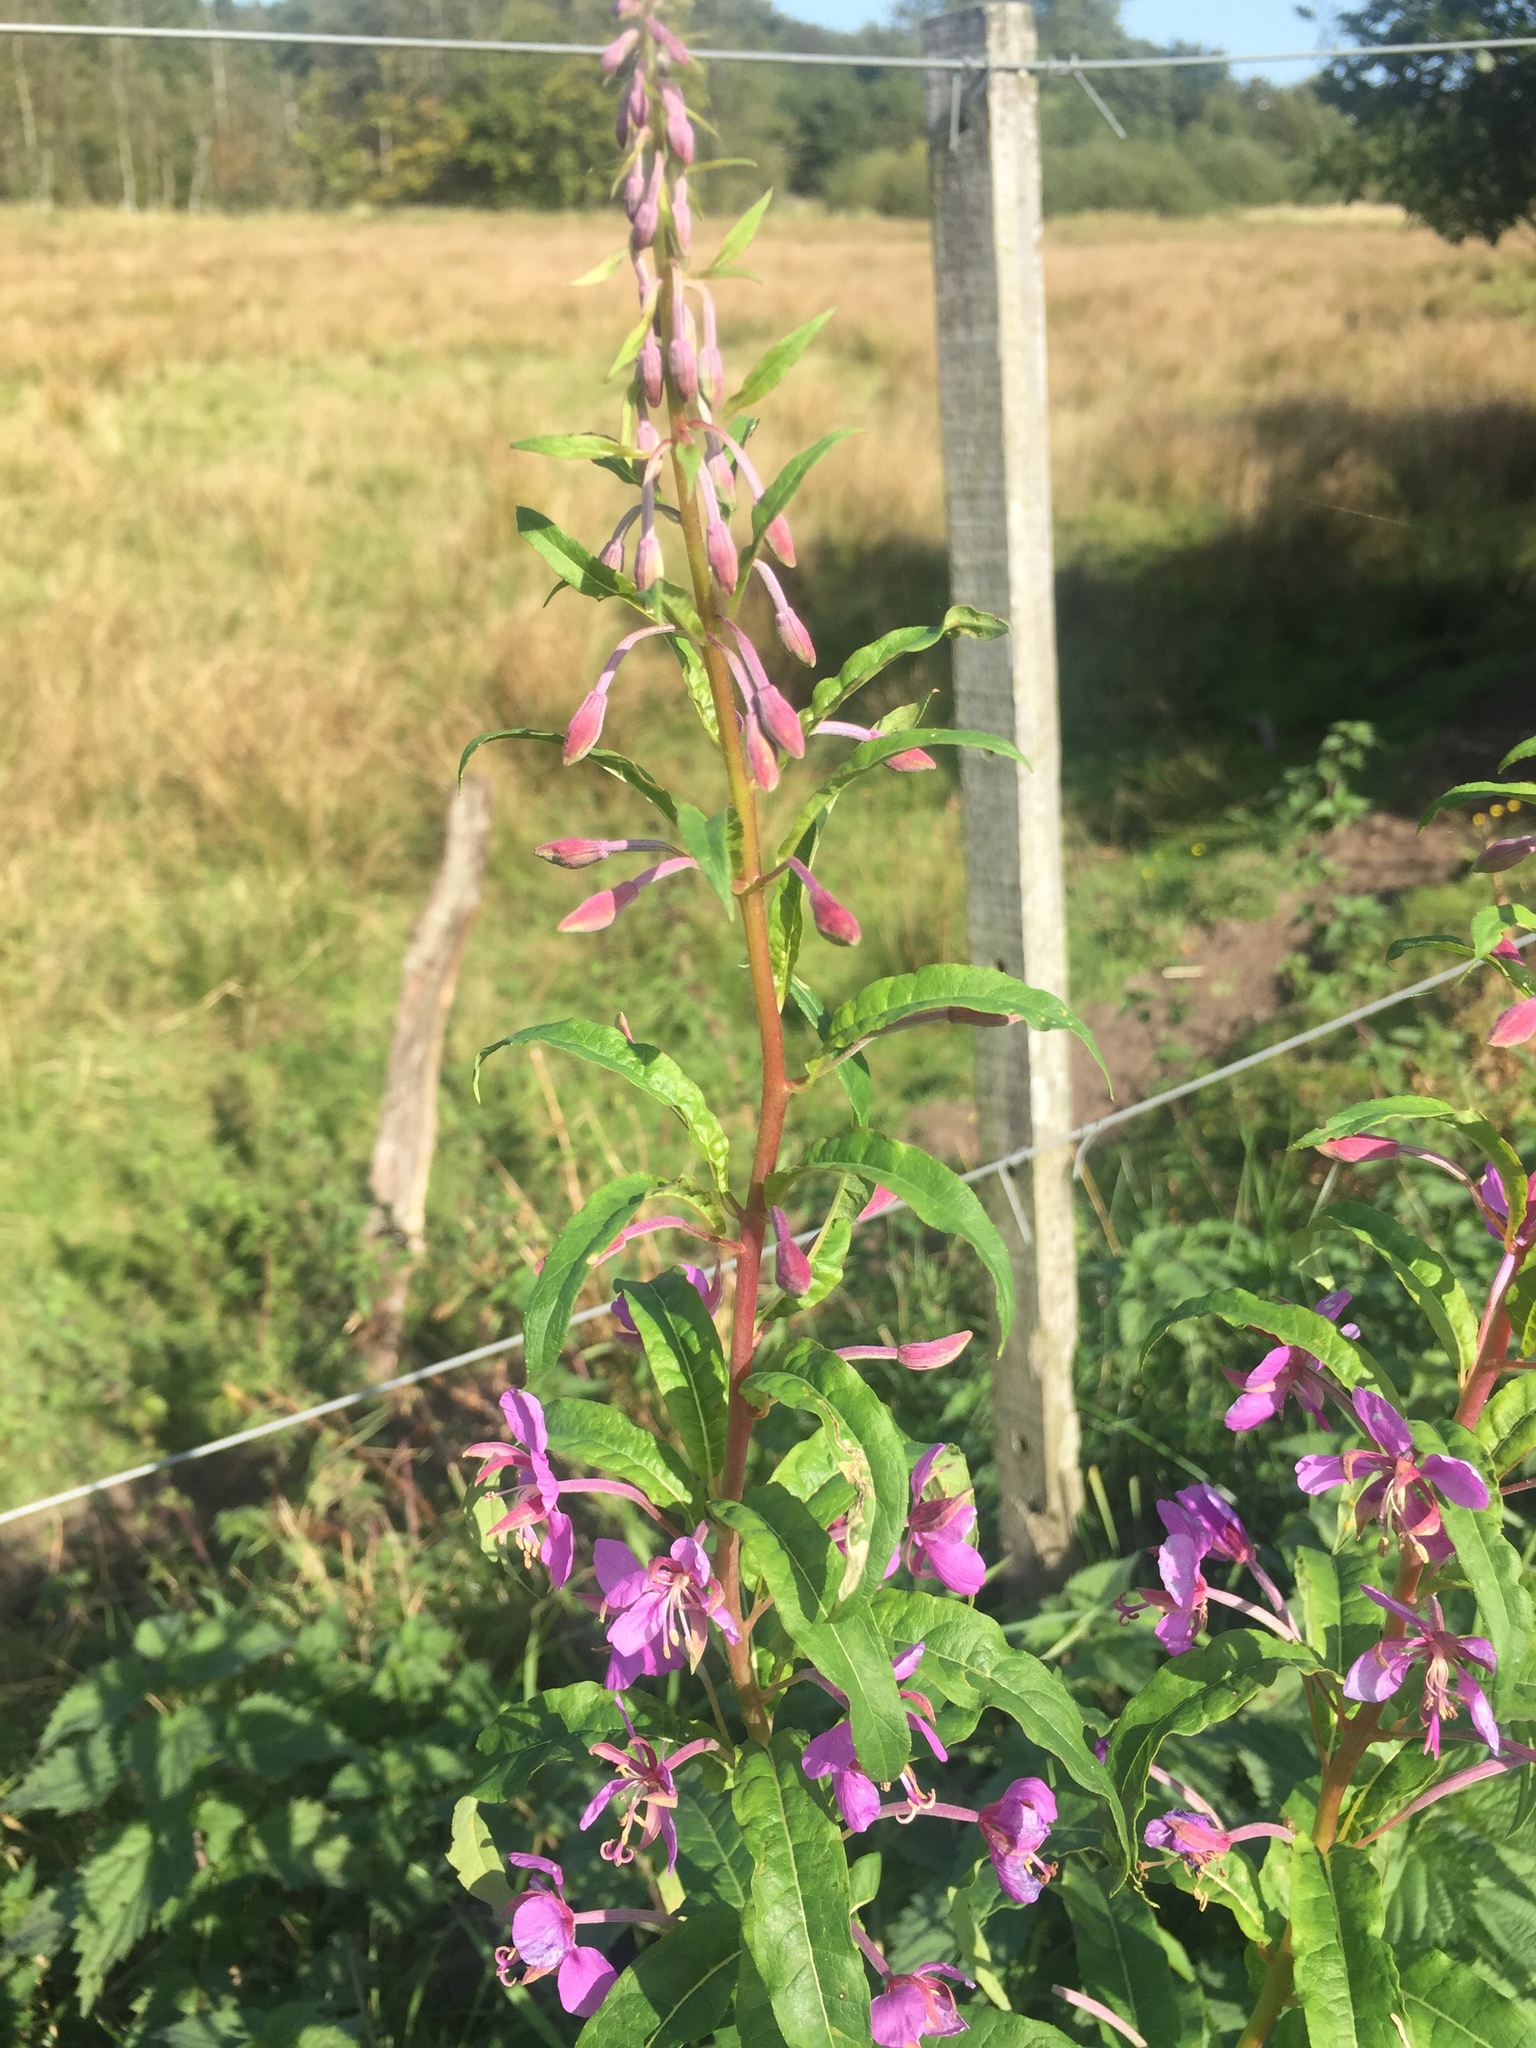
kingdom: Plantae
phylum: Tracheophyta
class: Magnoliopsida
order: Myrtales
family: Onagraceae
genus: Chamaenerion
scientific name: Chamaenerion angustifolium
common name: Fireweed
